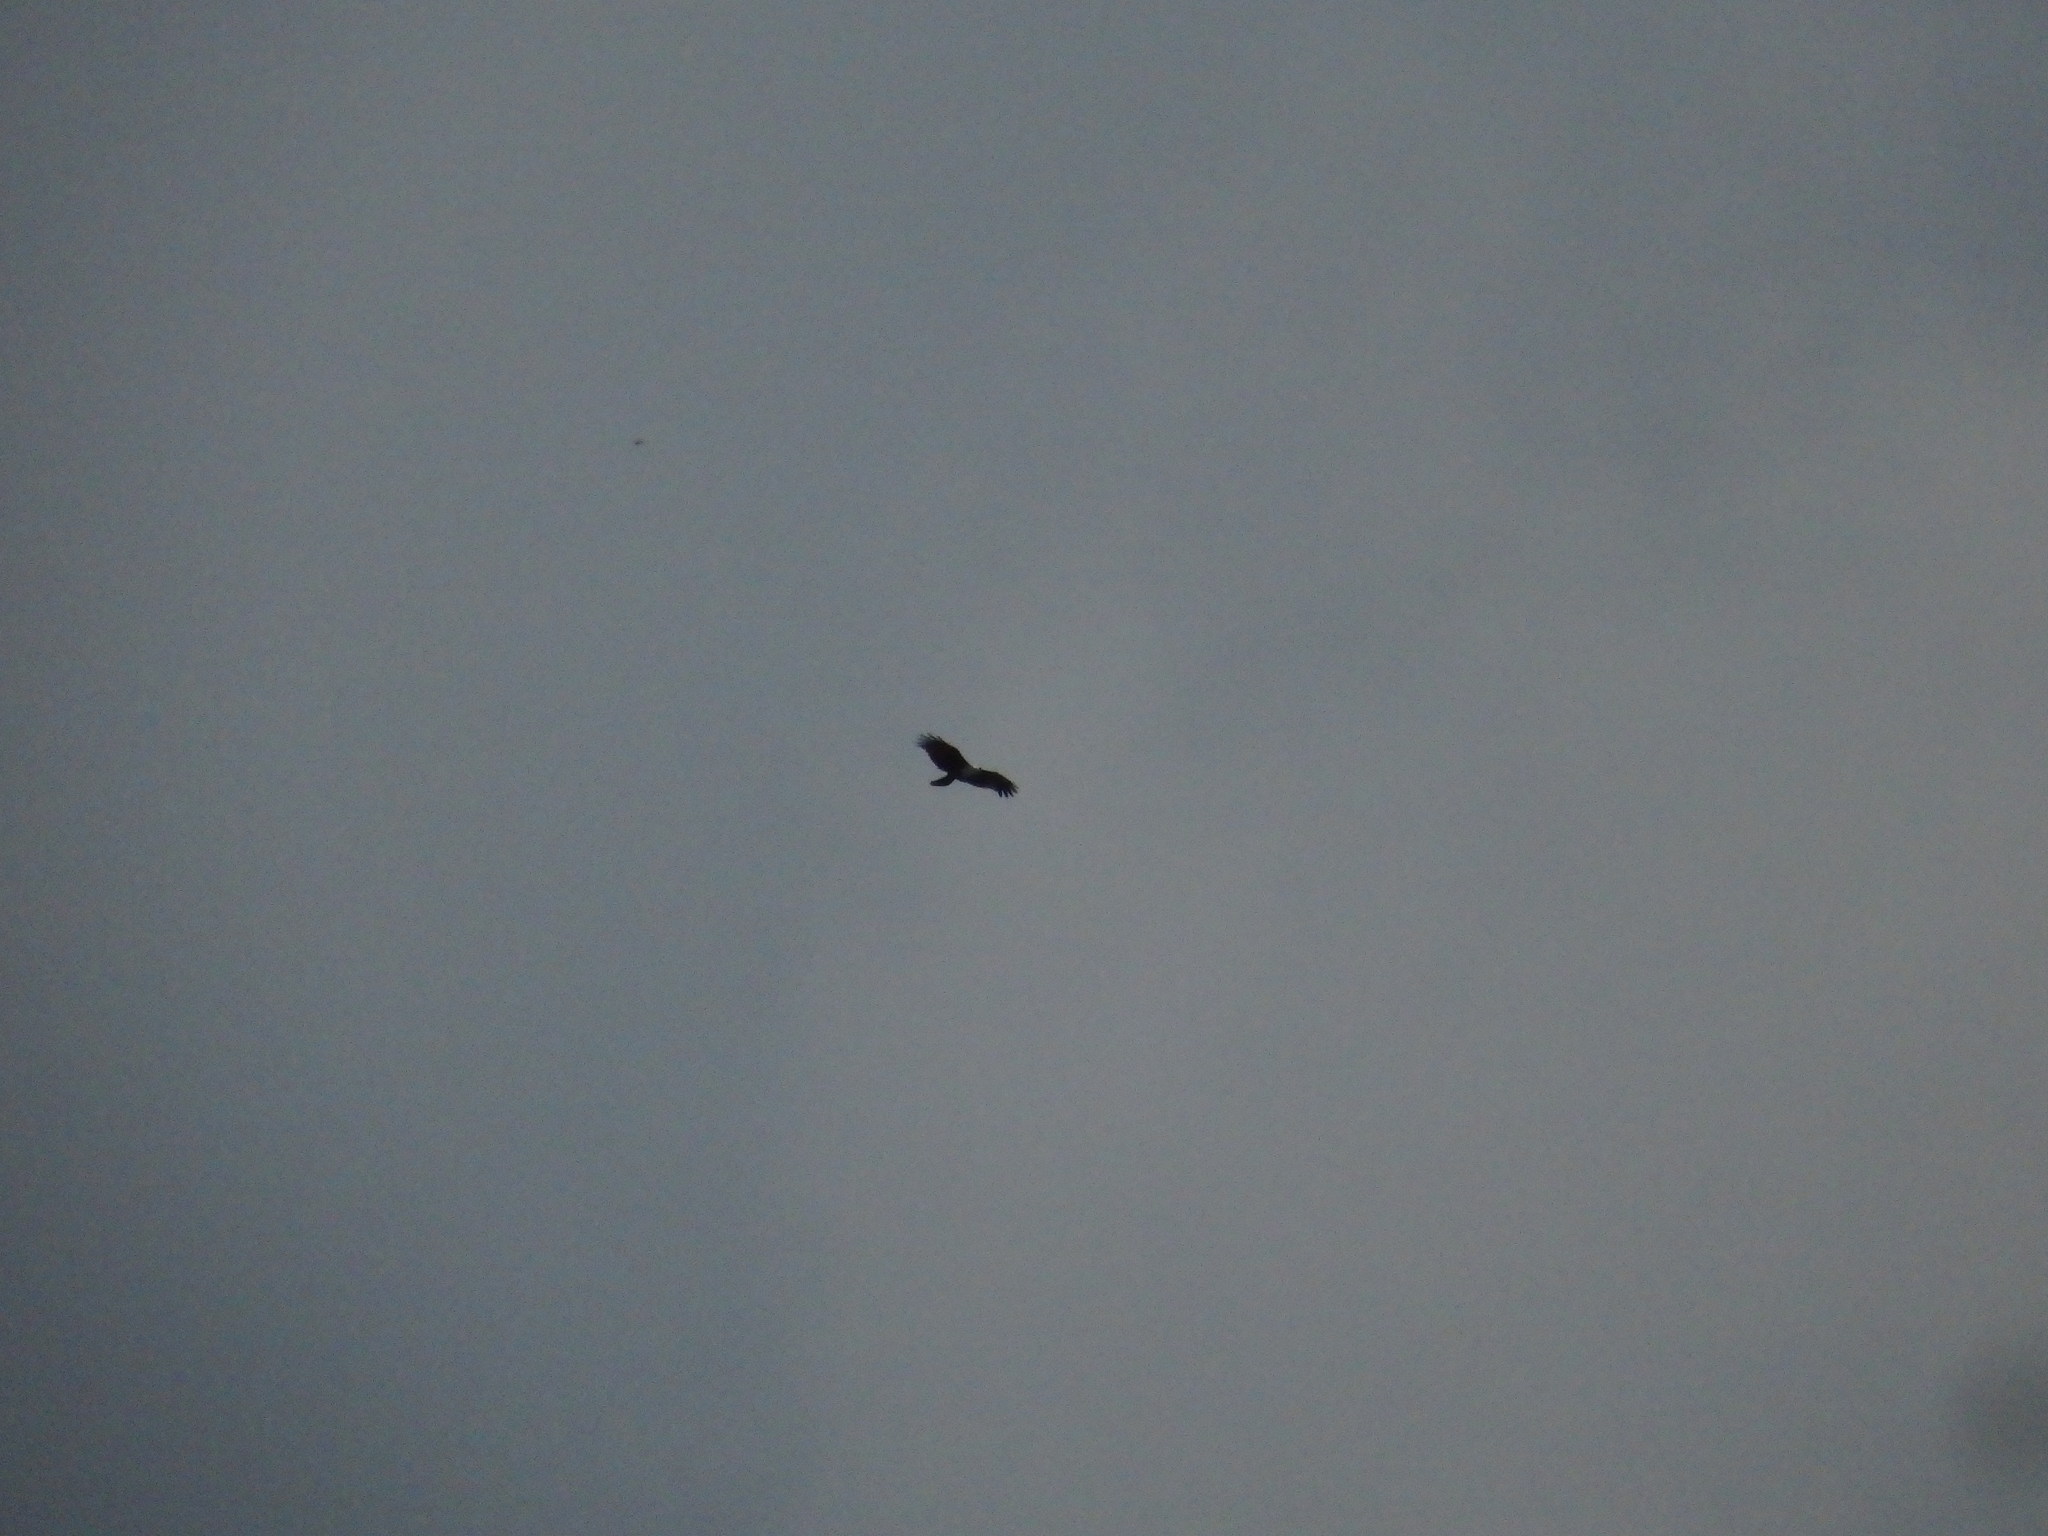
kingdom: Animalia
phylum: Chordata
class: Aves
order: Accipitriformes
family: Accipitridae
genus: Haliastur
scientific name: Haliastur indus
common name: Brahminy kite
